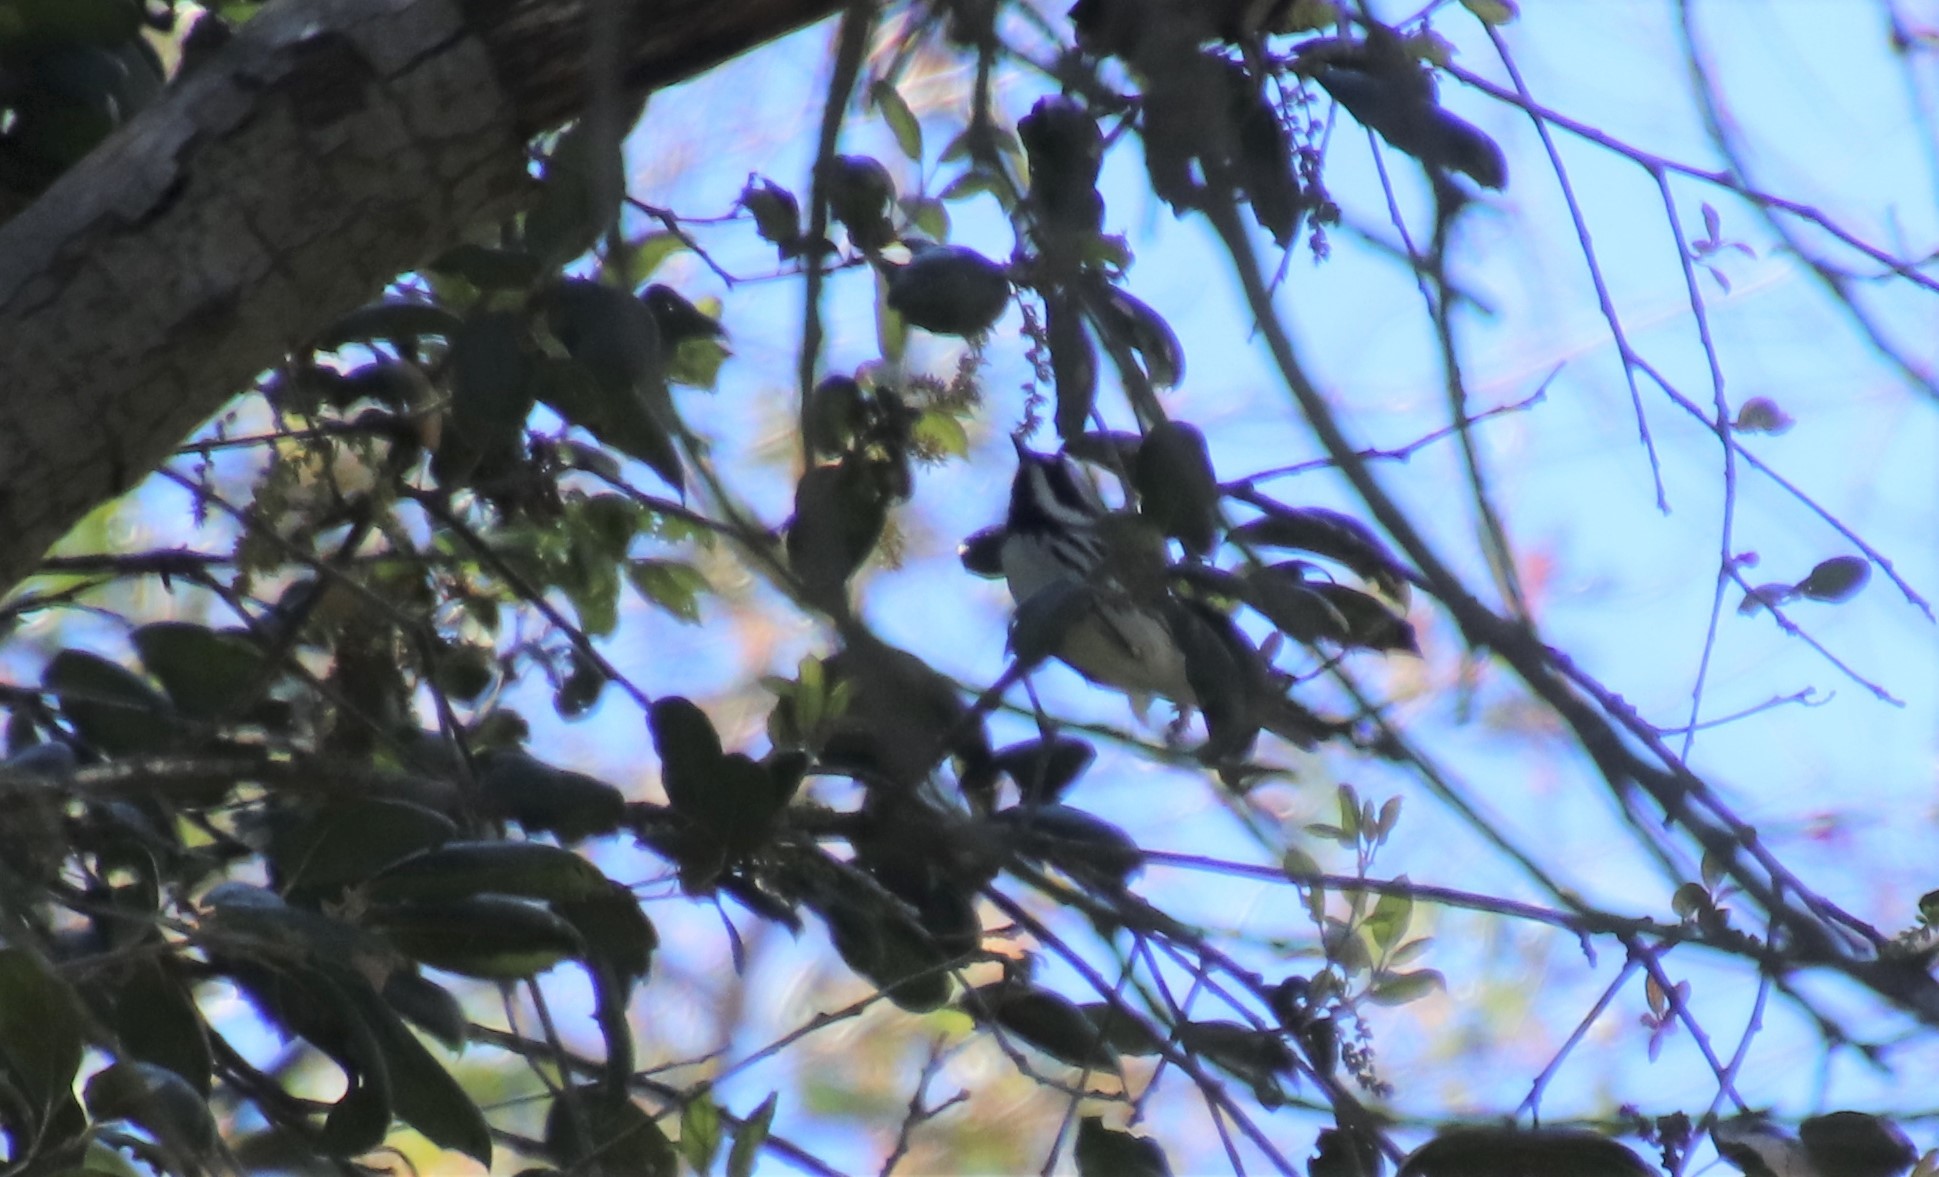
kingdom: Animalia
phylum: Chordata
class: Aves
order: Passeriformes
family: Parulidae
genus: Setophaga
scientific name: Setophaga nigrescens
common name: Black-throated gray warbler
